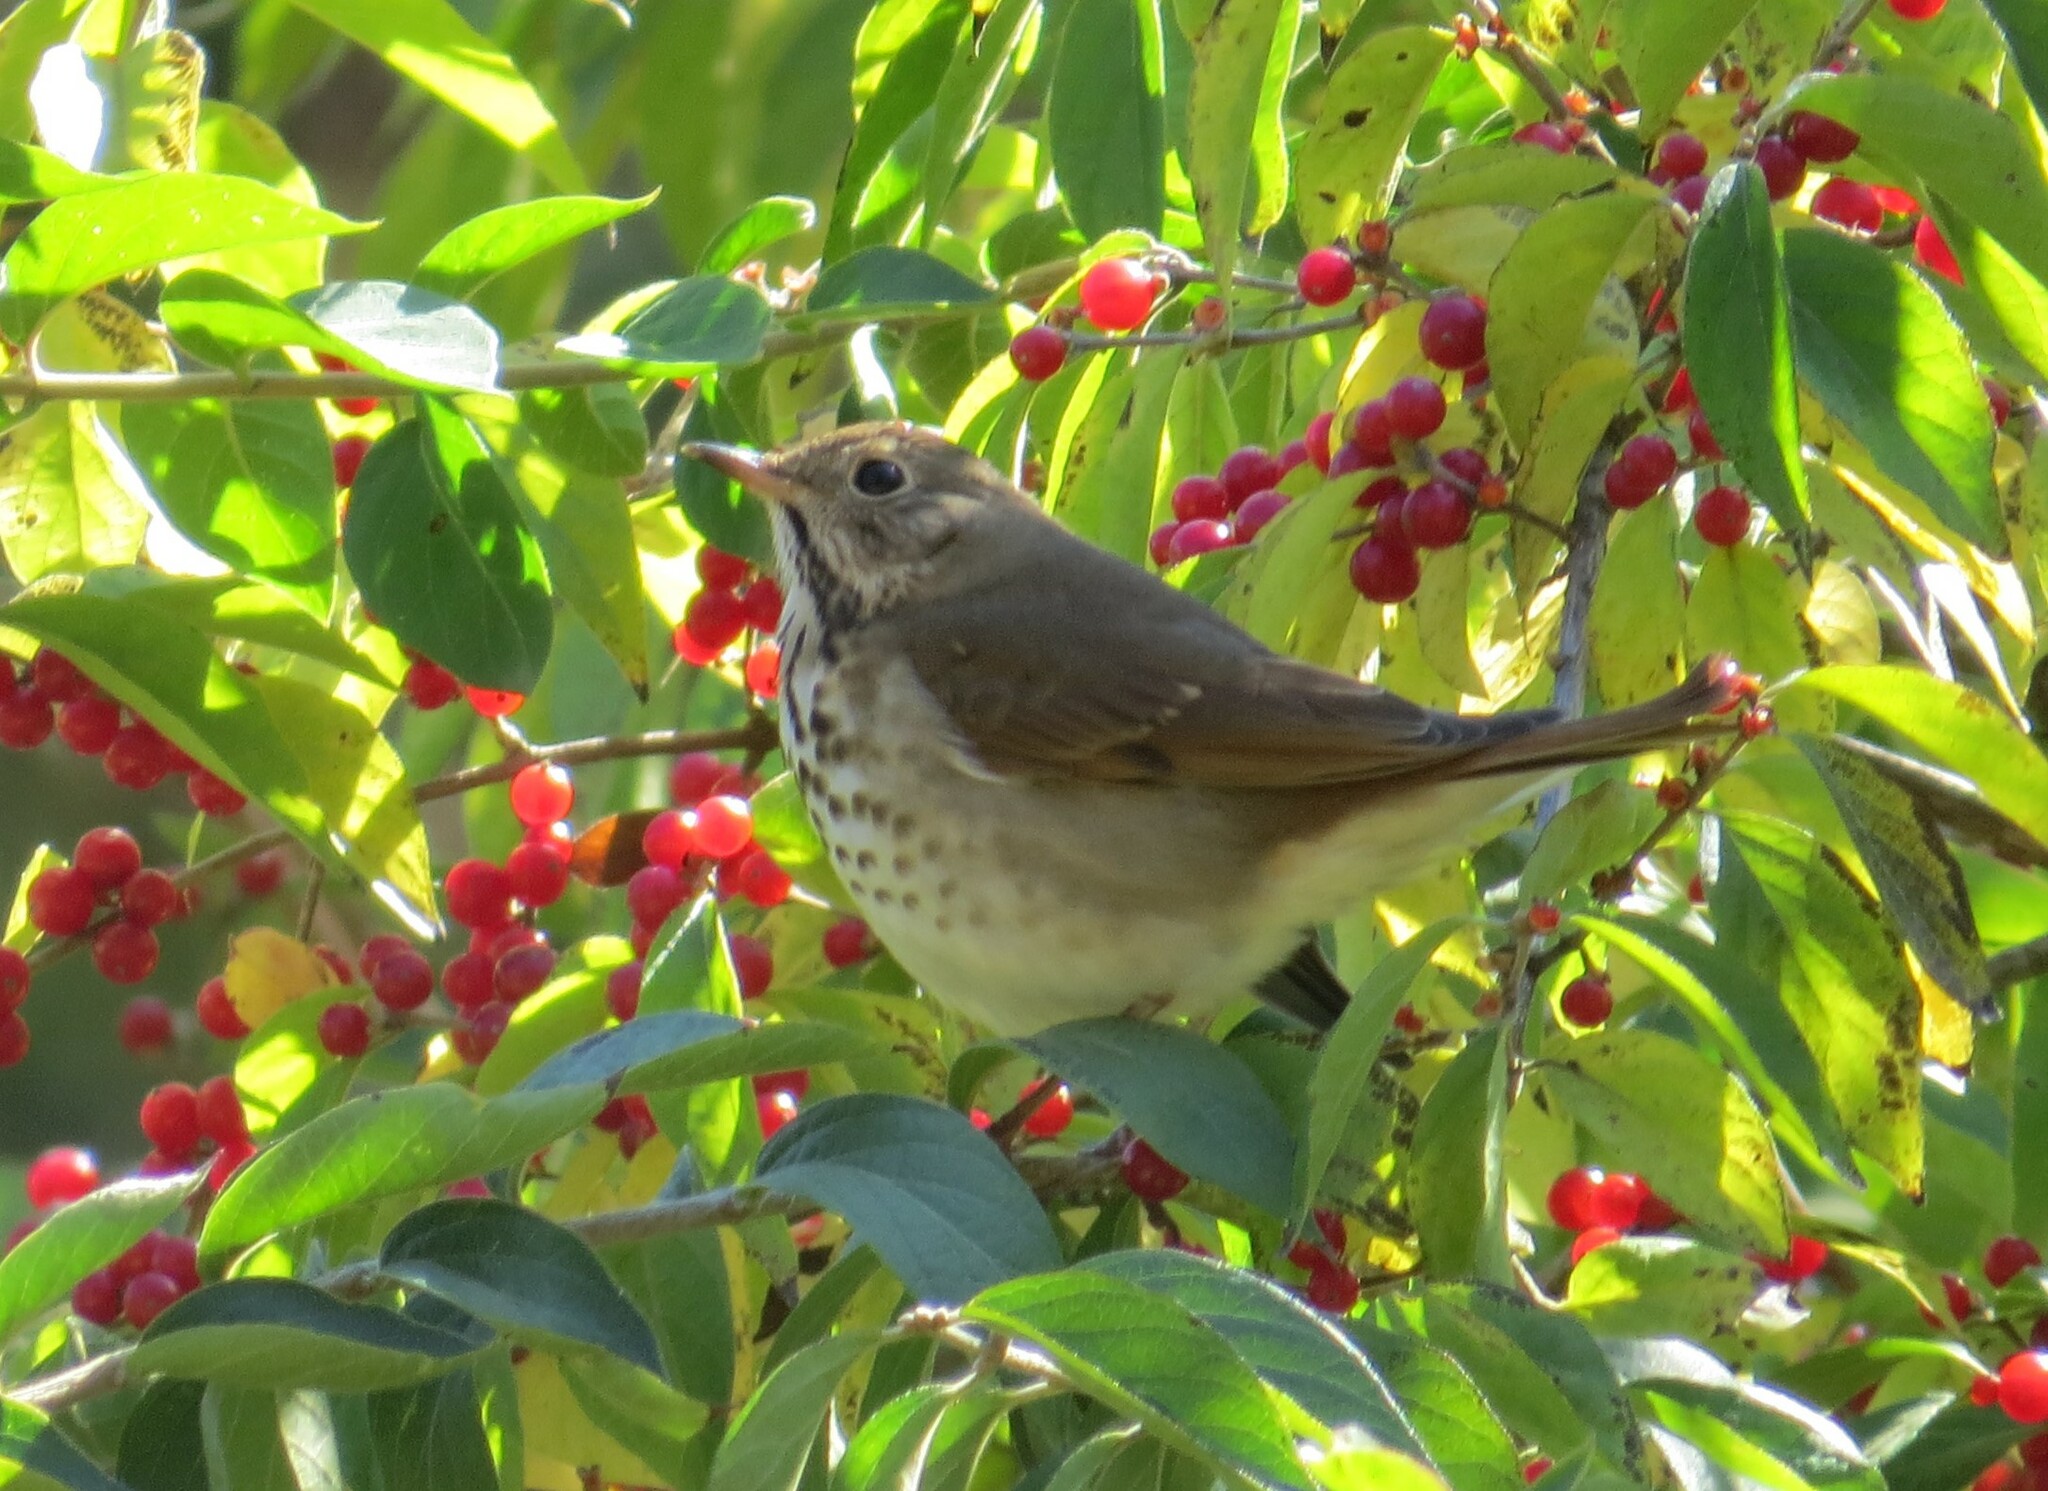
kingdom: Animalia
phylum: Chordata
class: Aves
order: Passeriformes
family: Turdidae
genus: Catharus
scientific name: Catharus guttatus
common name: Hermit thrush
